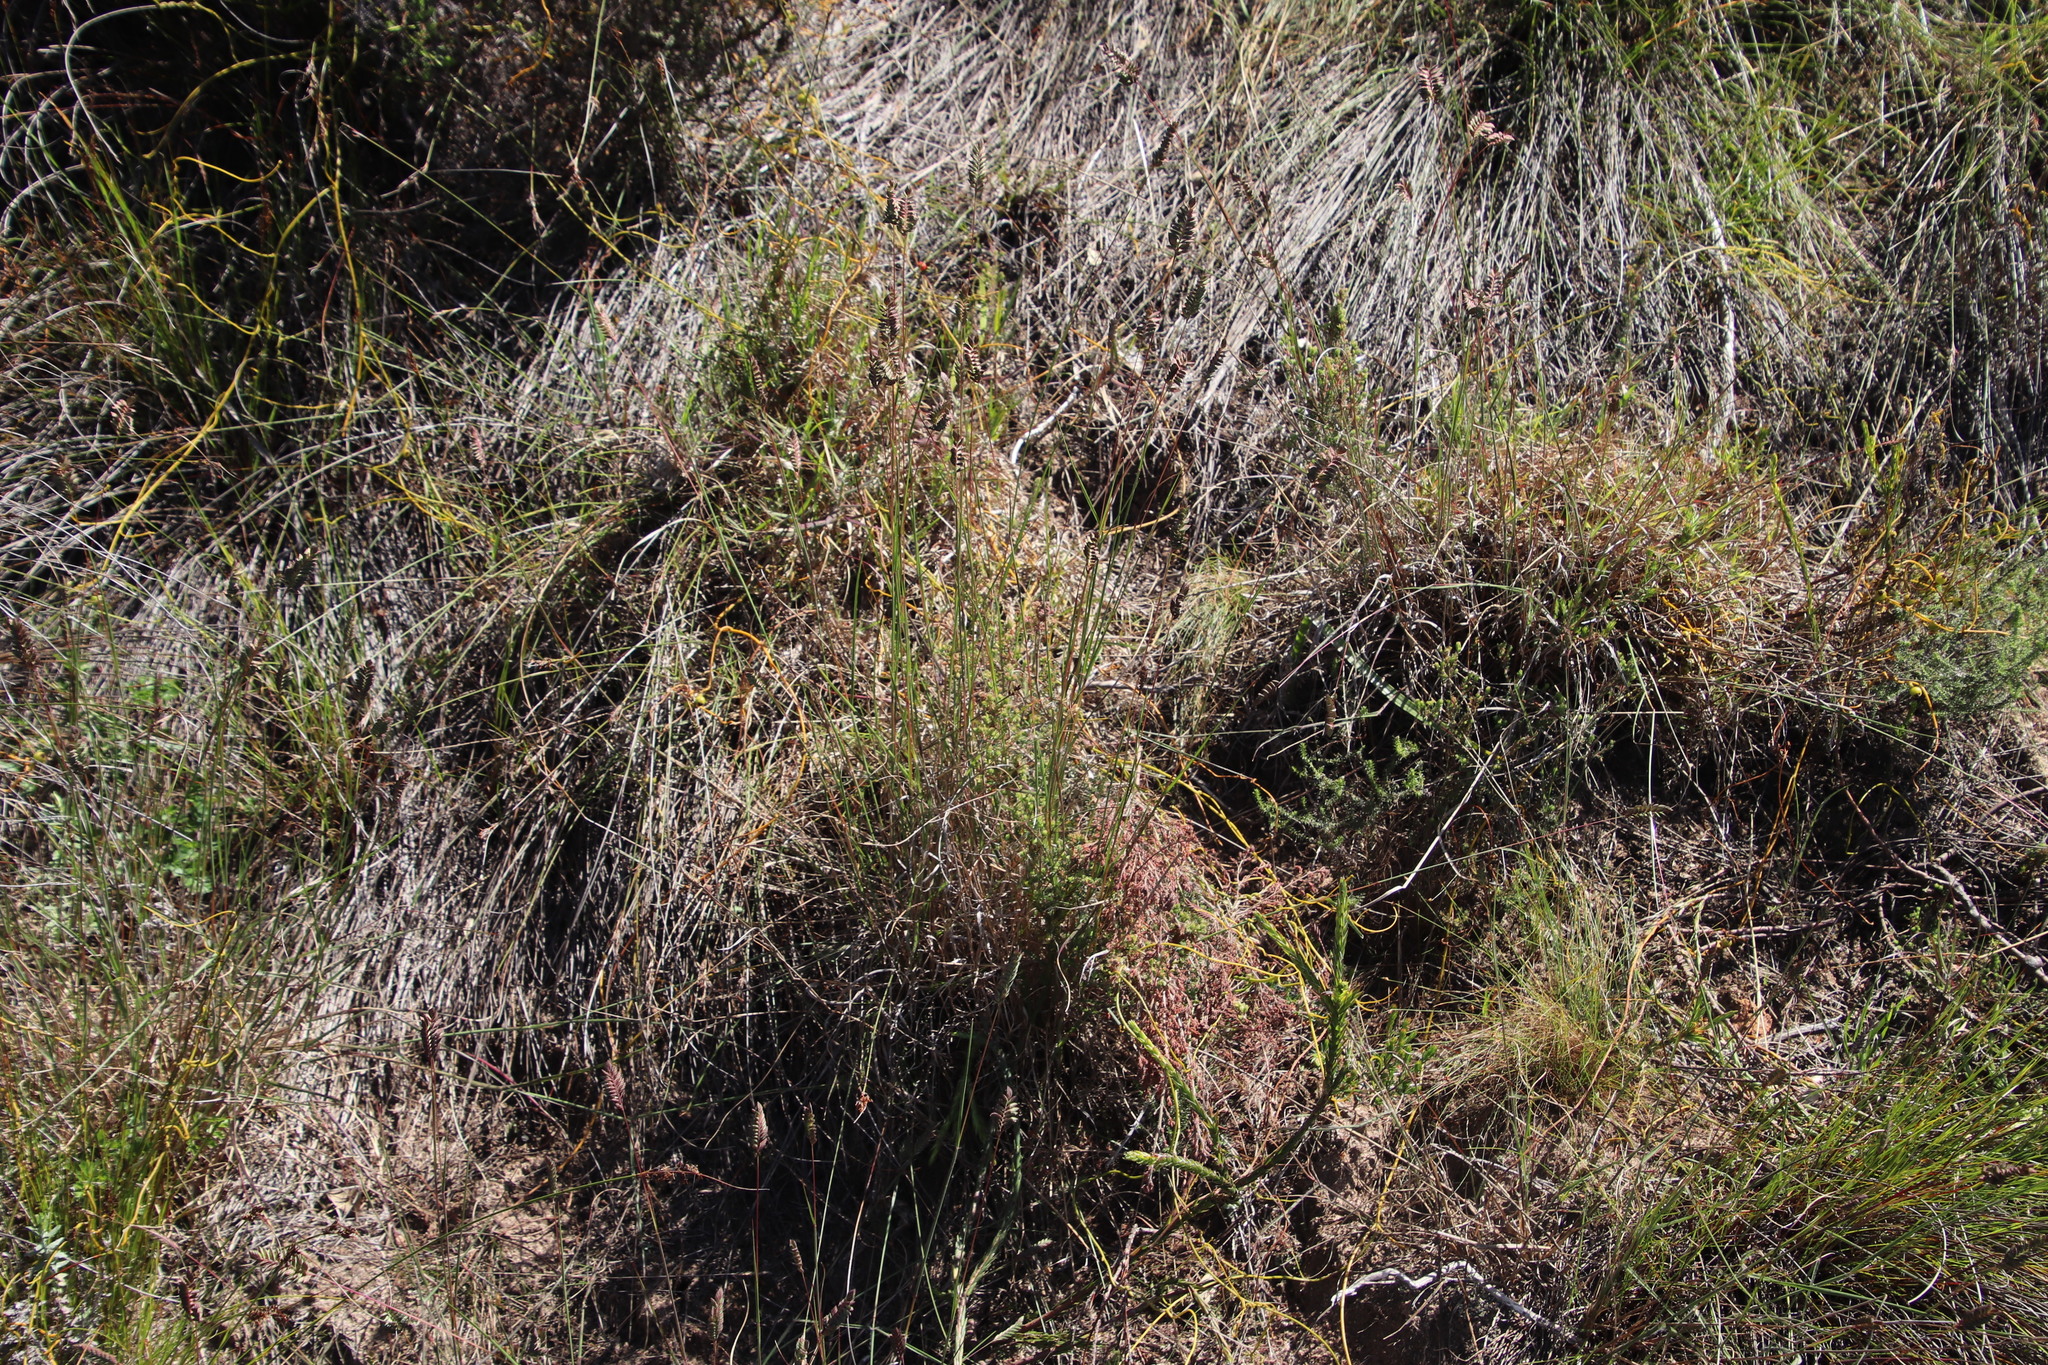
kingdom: Plantae
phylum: Tracheophyta
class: Magnoliopsida
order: Fabales
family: Polygalaceae
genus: Polygala
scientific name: Polygala bracteolata
